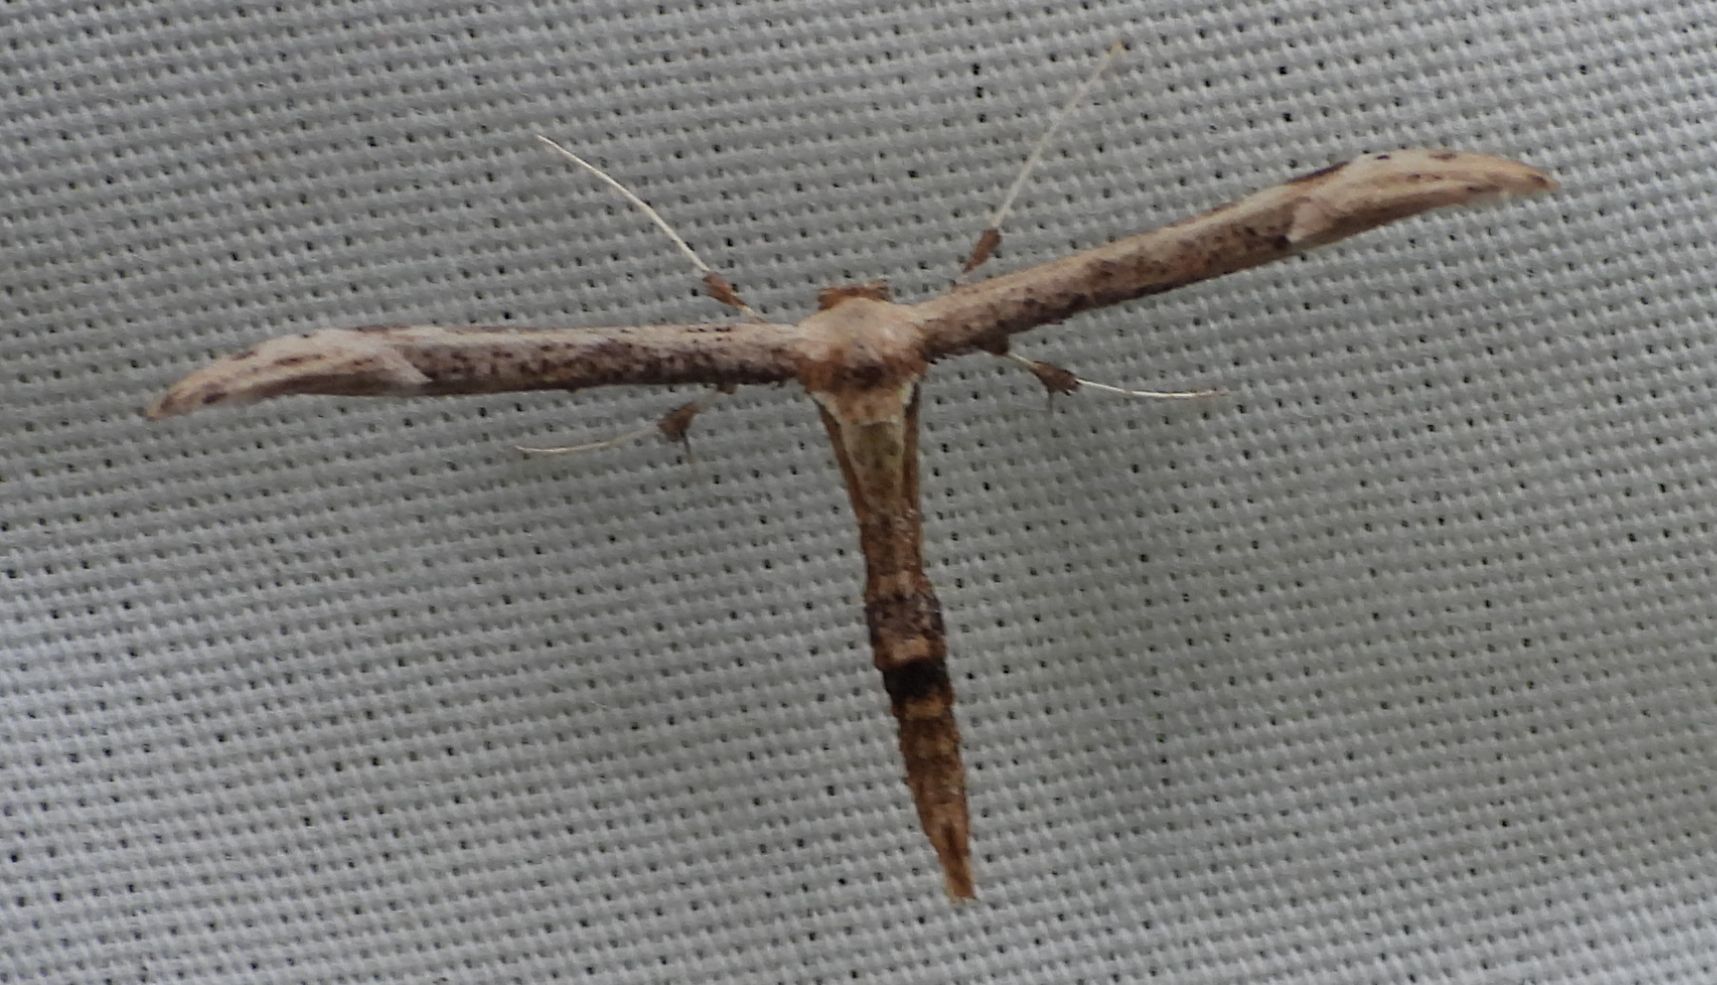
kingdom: Animalia
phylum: Arthropoda
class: Insecta
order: Lepidoptera
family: Pterophoridae
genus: Oidaematophorus
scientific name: Oidaematophorus eupatorii
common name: Eupatorium plume moth
